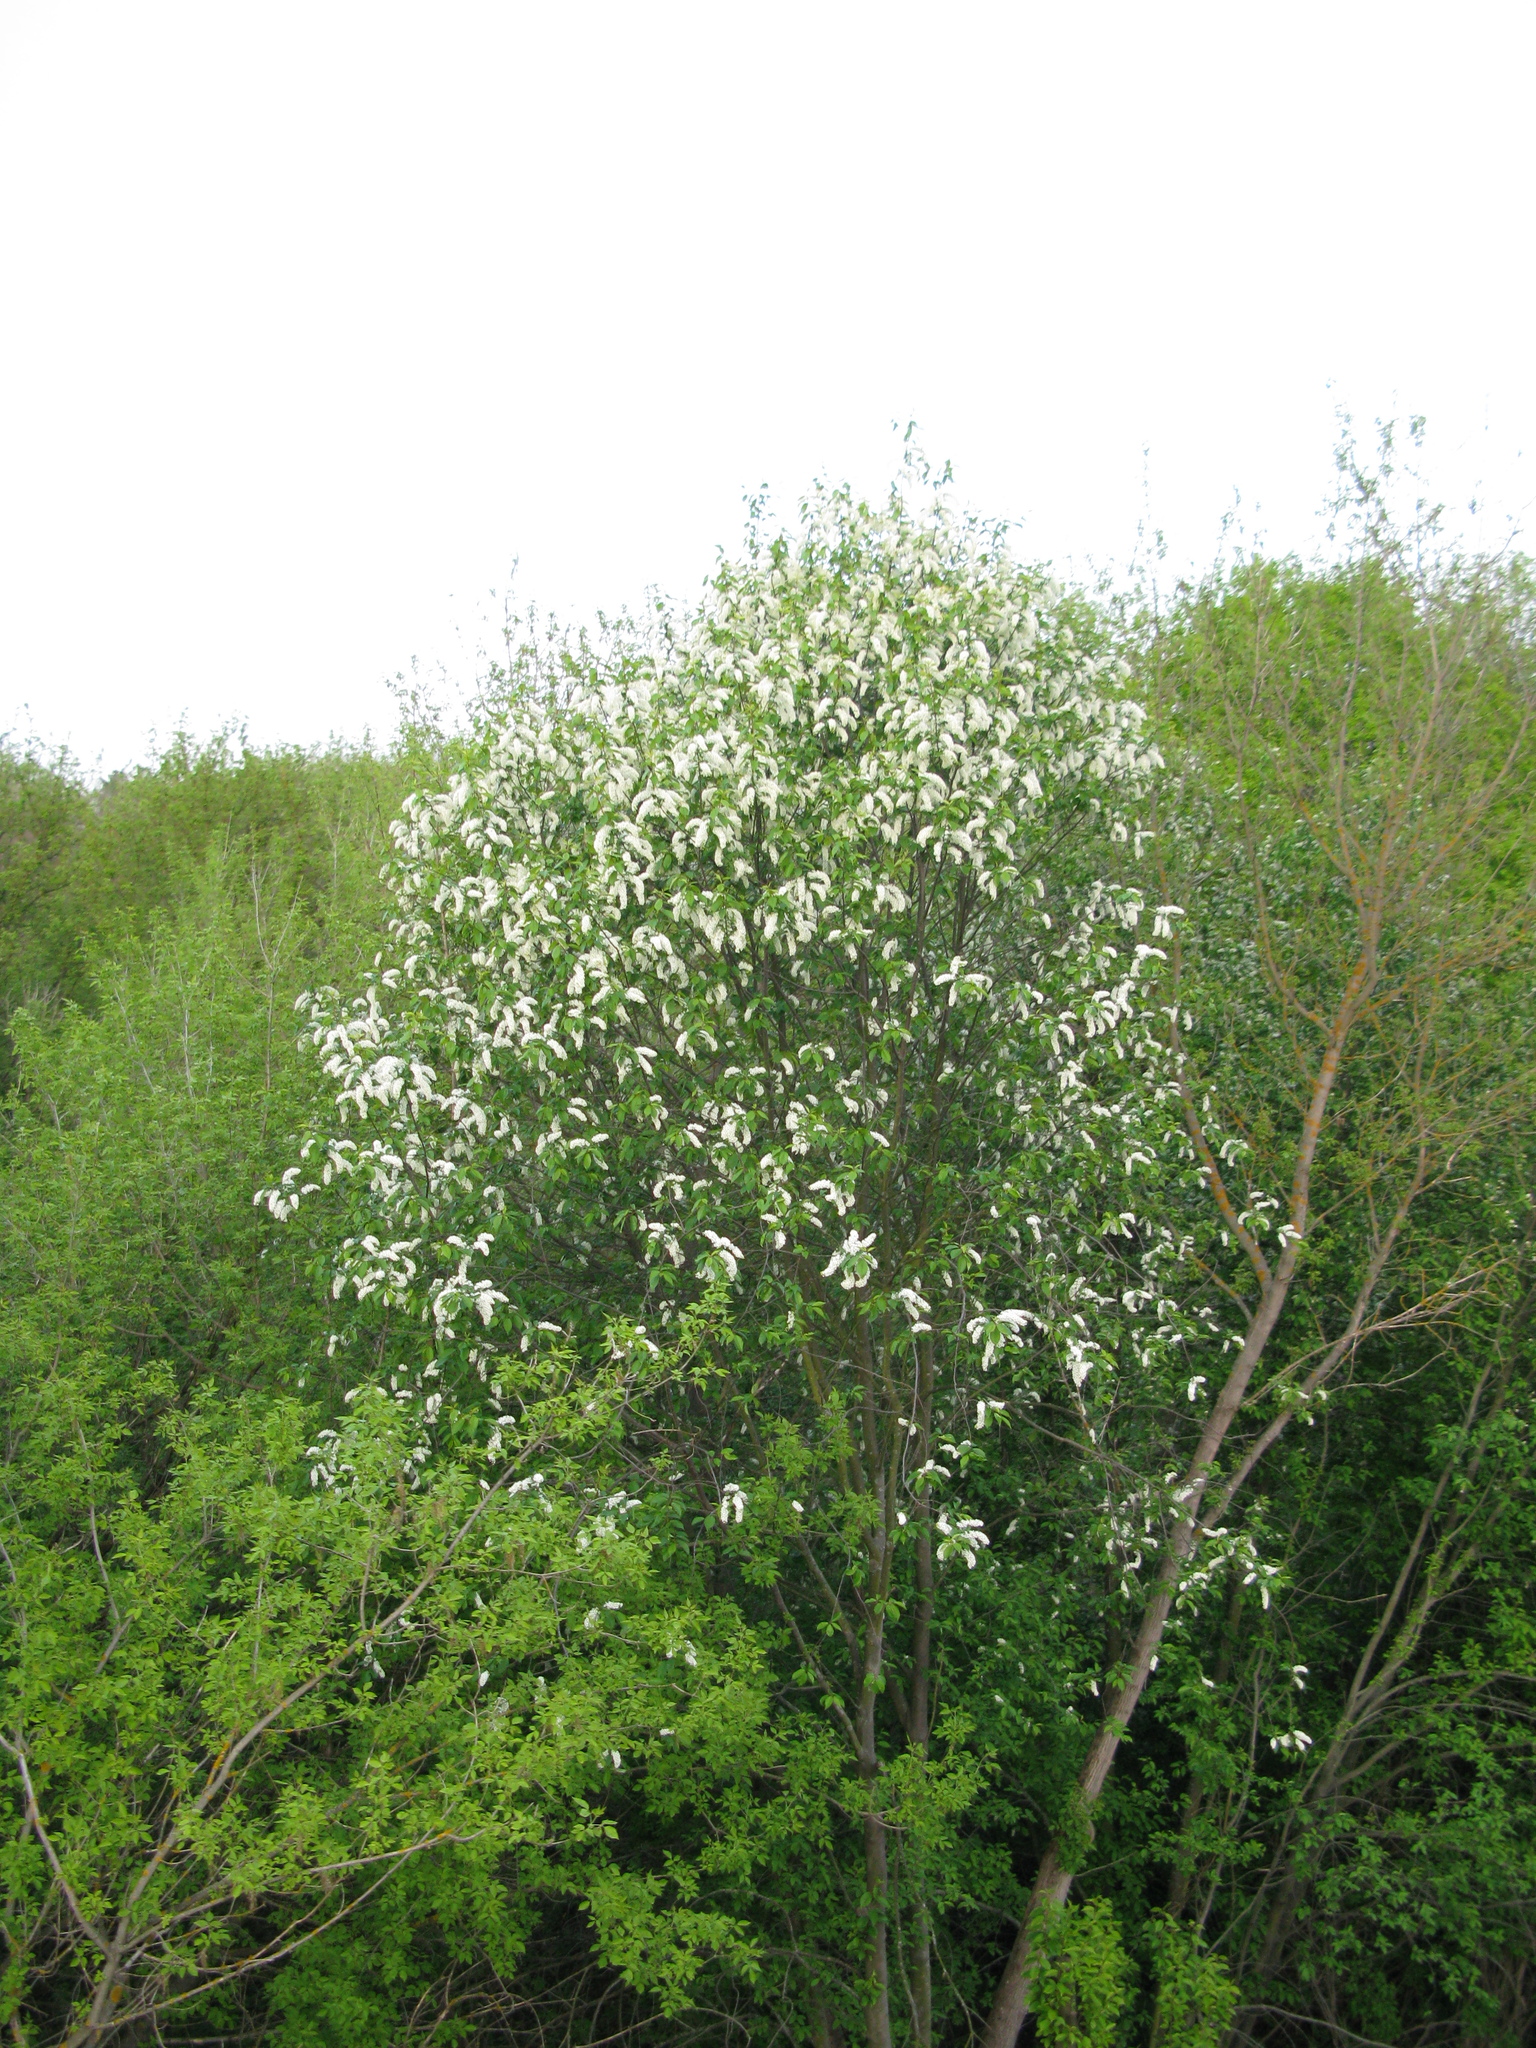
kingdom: Plantae
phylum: Tracheophyta
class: Magnoliopsida
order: Rosales
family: Rosaceae
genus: Prunus
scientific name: Prunus padus
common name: Bird cherry
